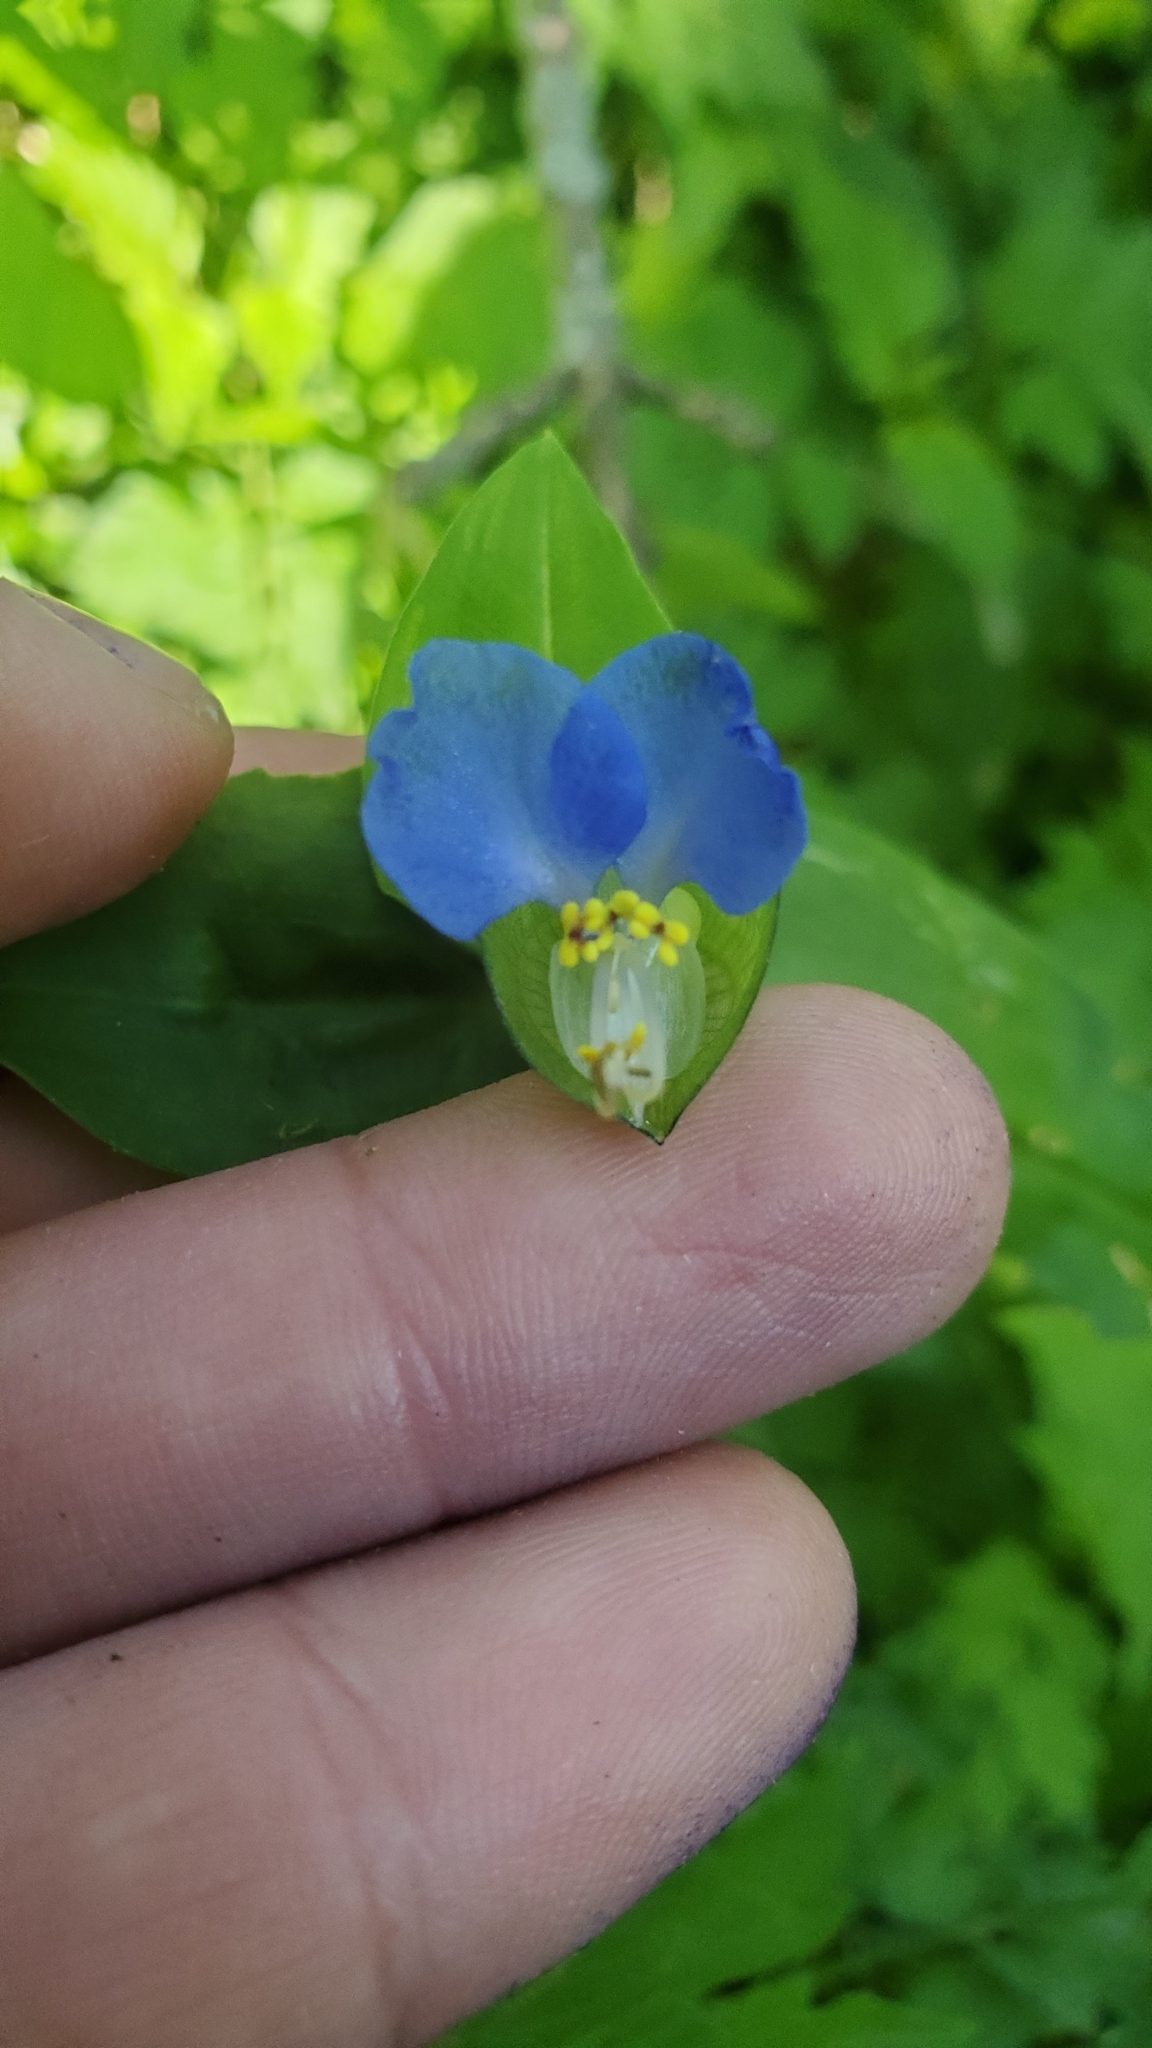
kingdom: Plantae
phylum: Tracheophyta
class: Liliopsida
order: Commelinales
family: Commelinaceae
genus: Commelina
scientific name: Commelina communis
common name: Asiatic dayflower
